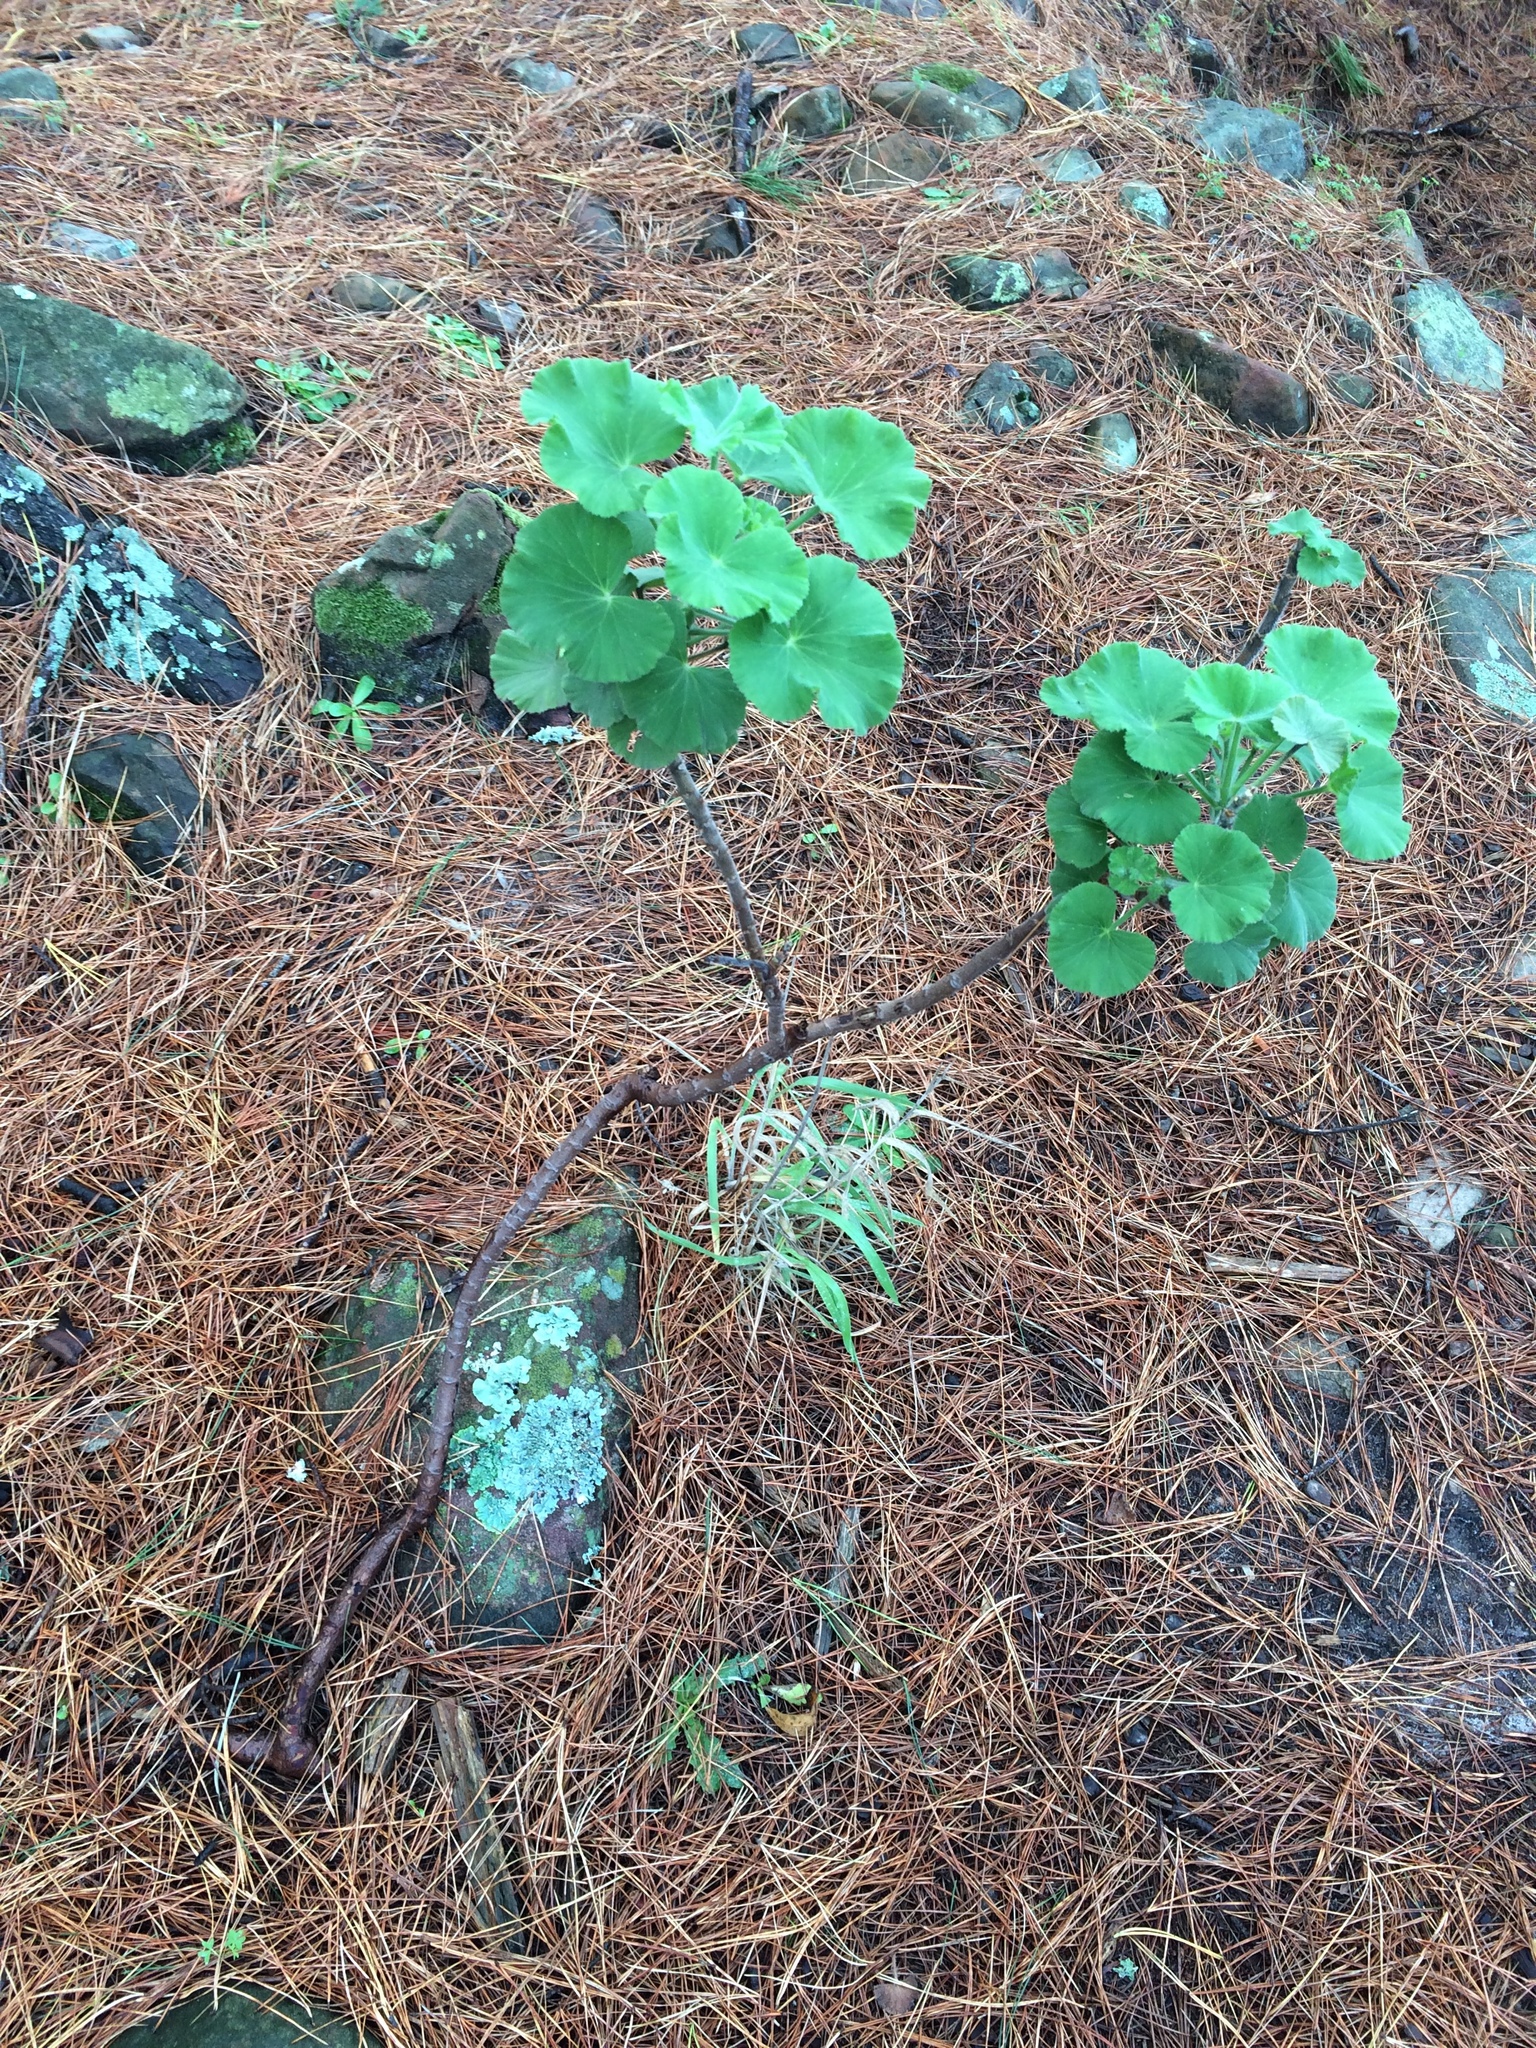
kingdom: Plantae
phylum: Tracheophyta
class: Magnoliopsida
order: Geraniales
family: Geraniaceae
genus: Pelargonium
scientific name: Pelargonium cucullatum
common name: Tree pelargonium
